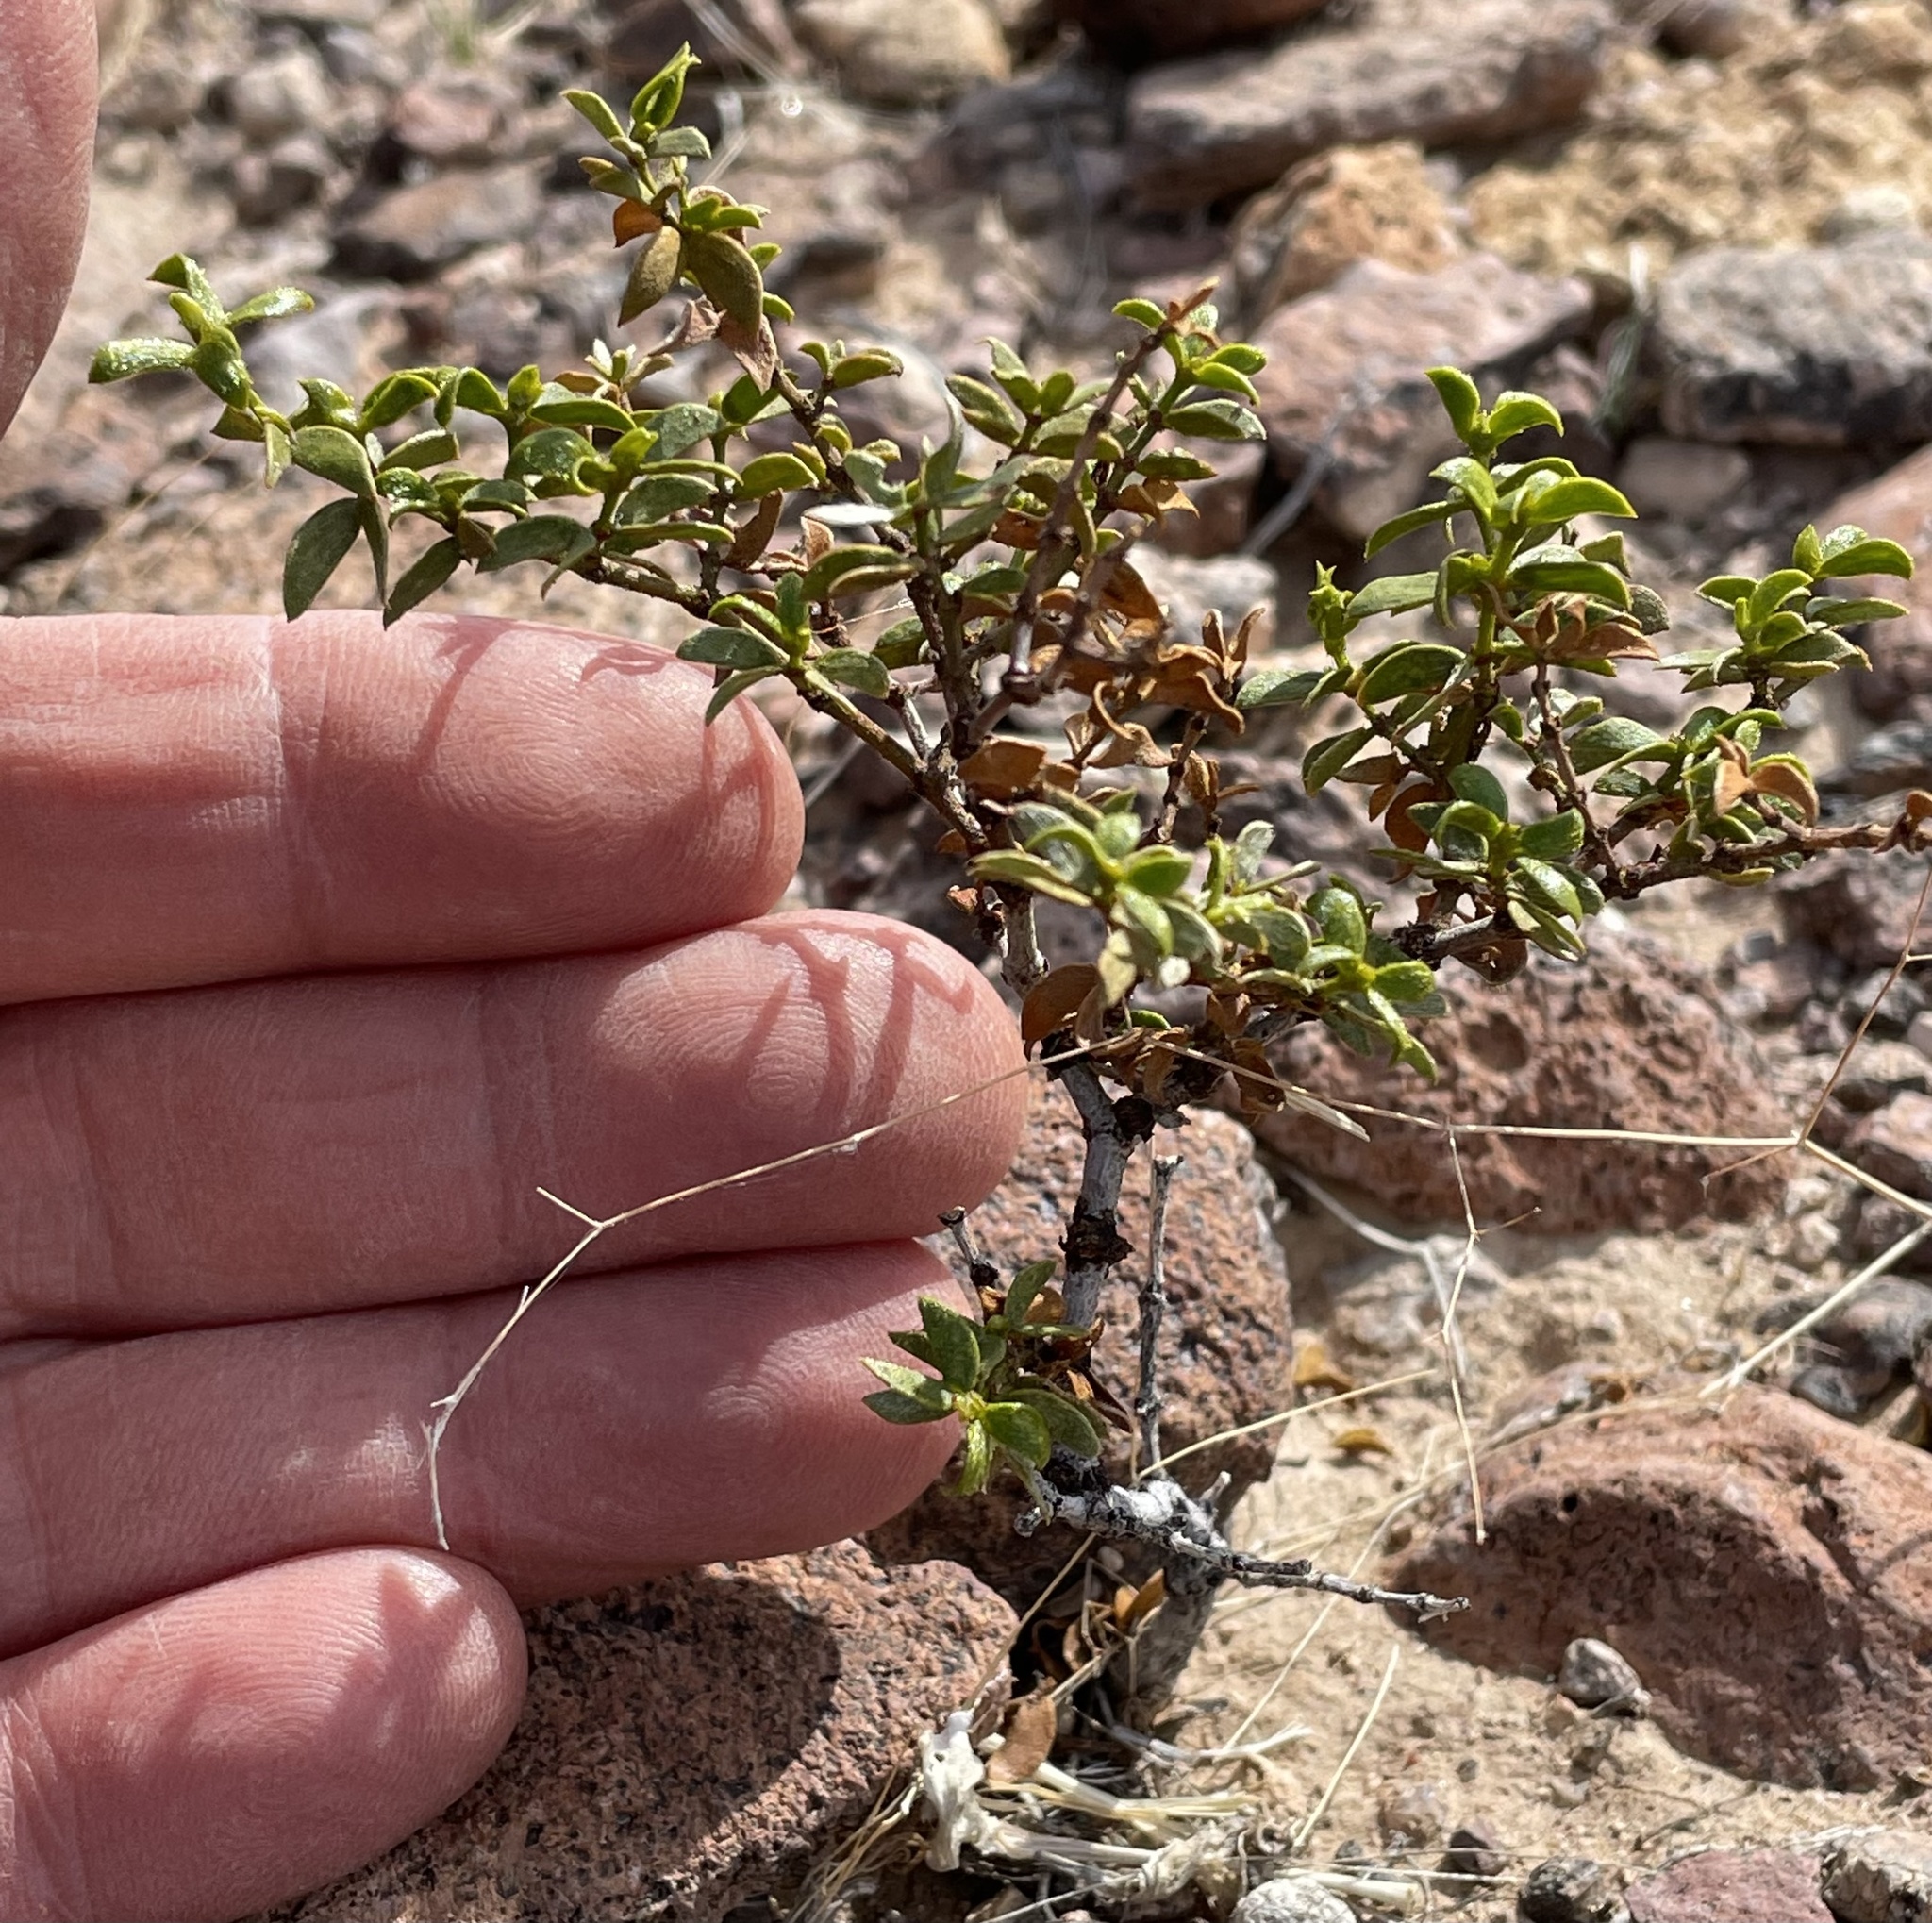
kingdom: Plantae
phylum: Tracheophyta
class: Magnoliopsida
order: Zygophyllales
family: Zygophyllaceae
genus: Larrea
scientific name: Larrea tridentata
